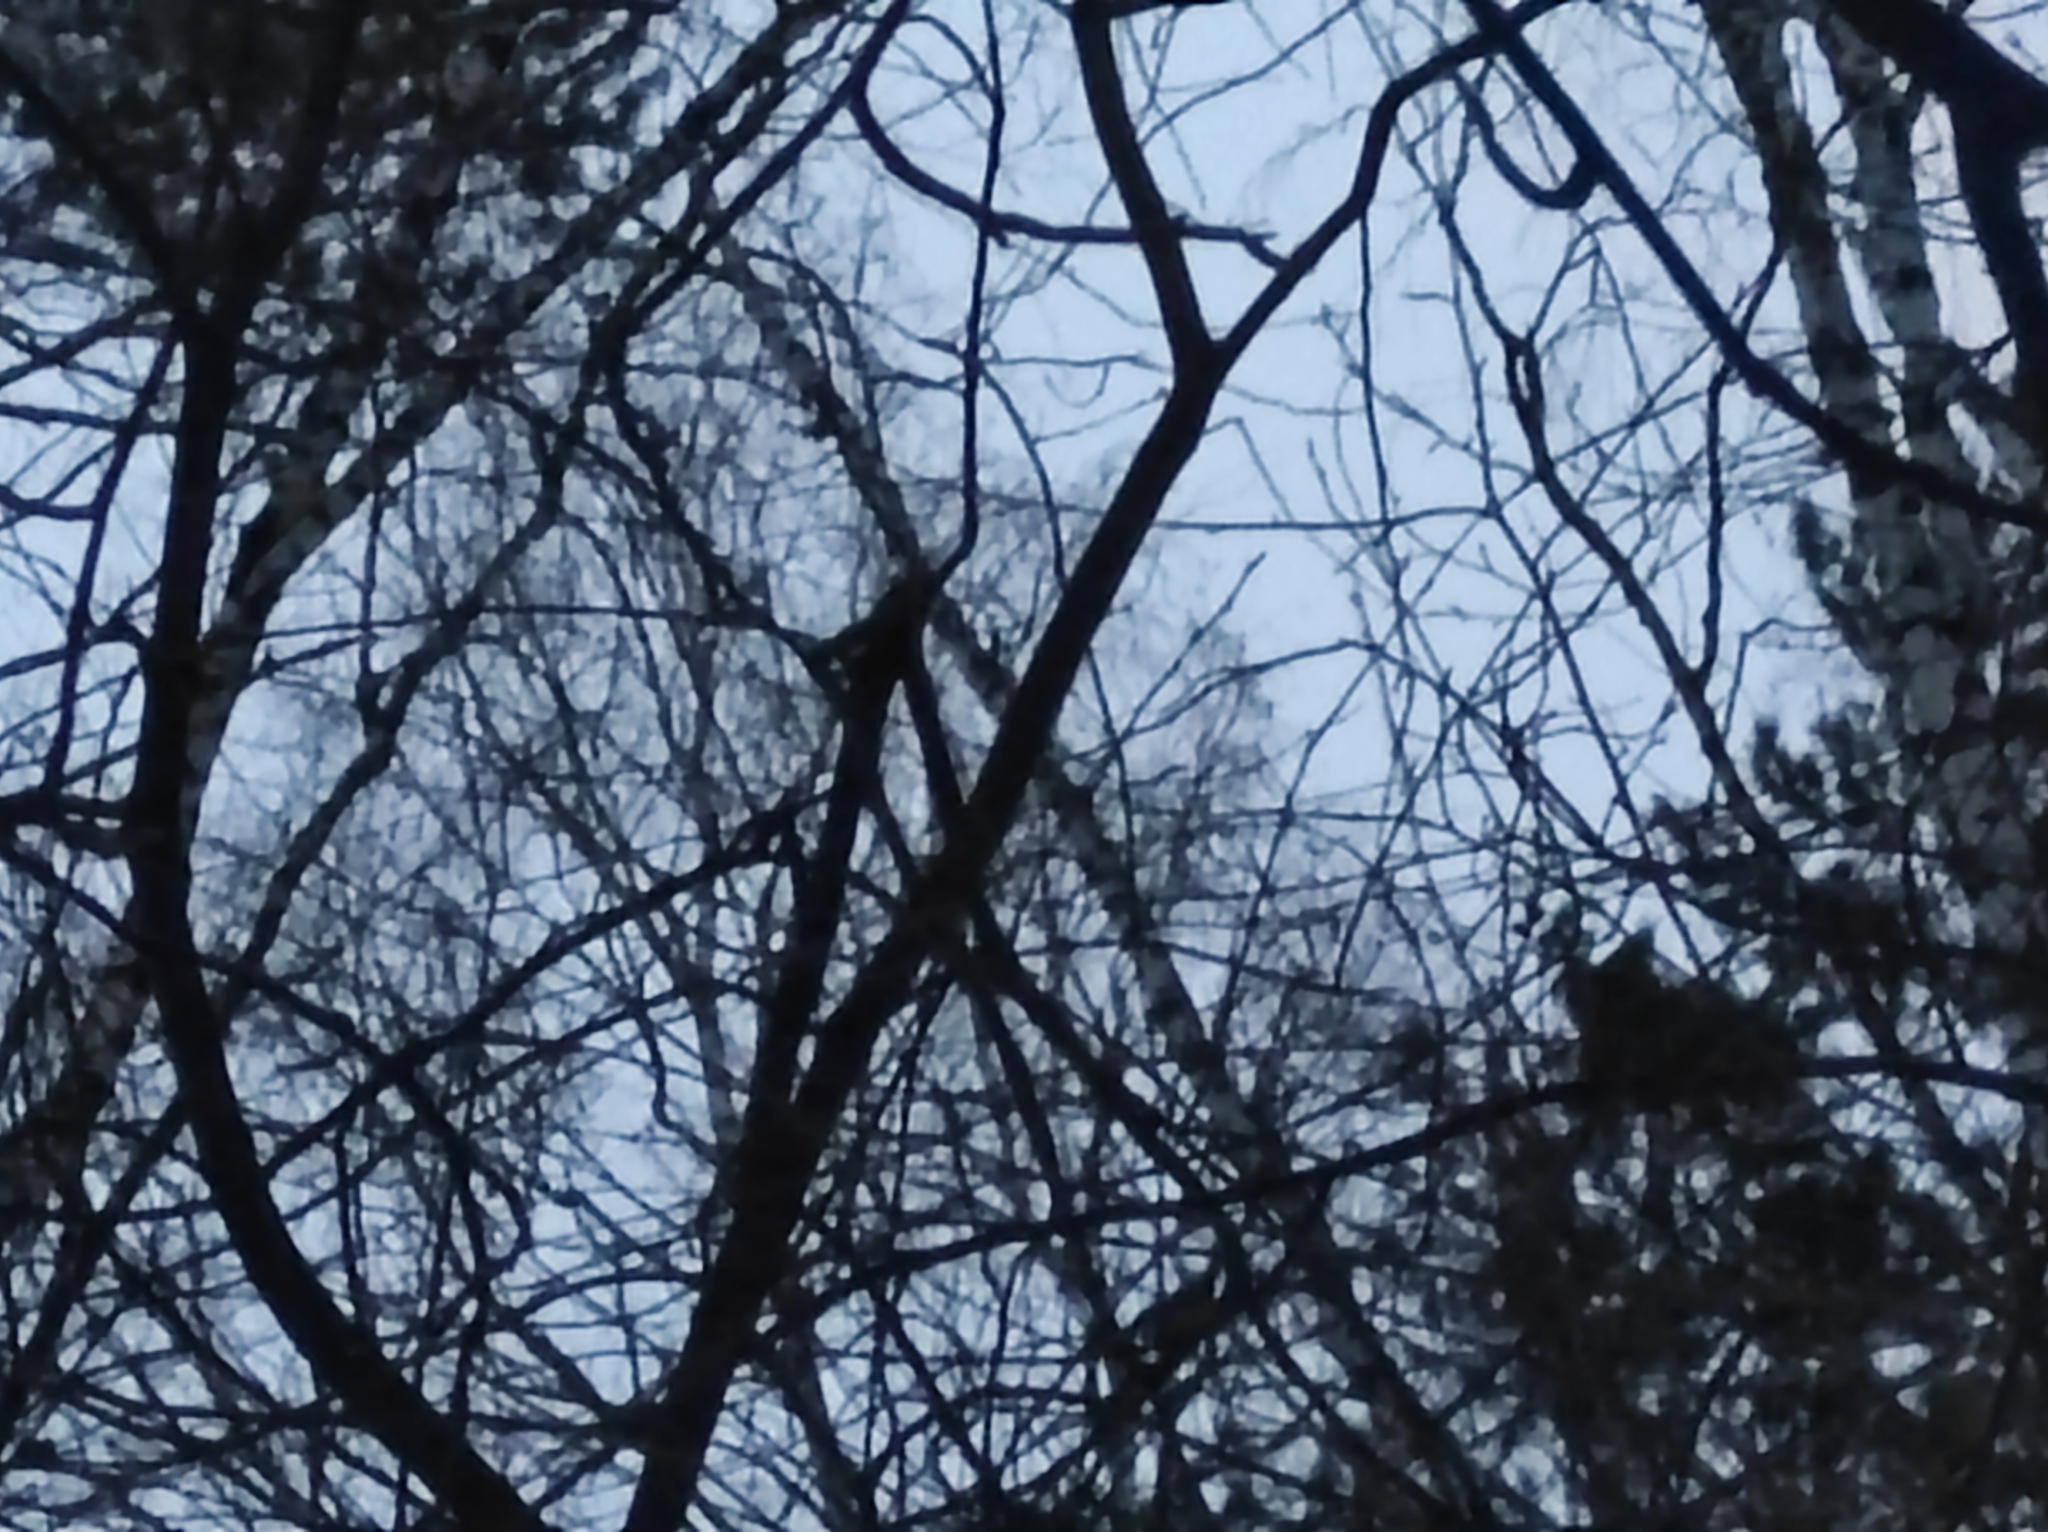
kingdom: Animalia
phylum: Chordata
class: Aves
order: Passeriformes
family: Paridae
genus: Parus
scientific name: Parus major
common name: Great tit
